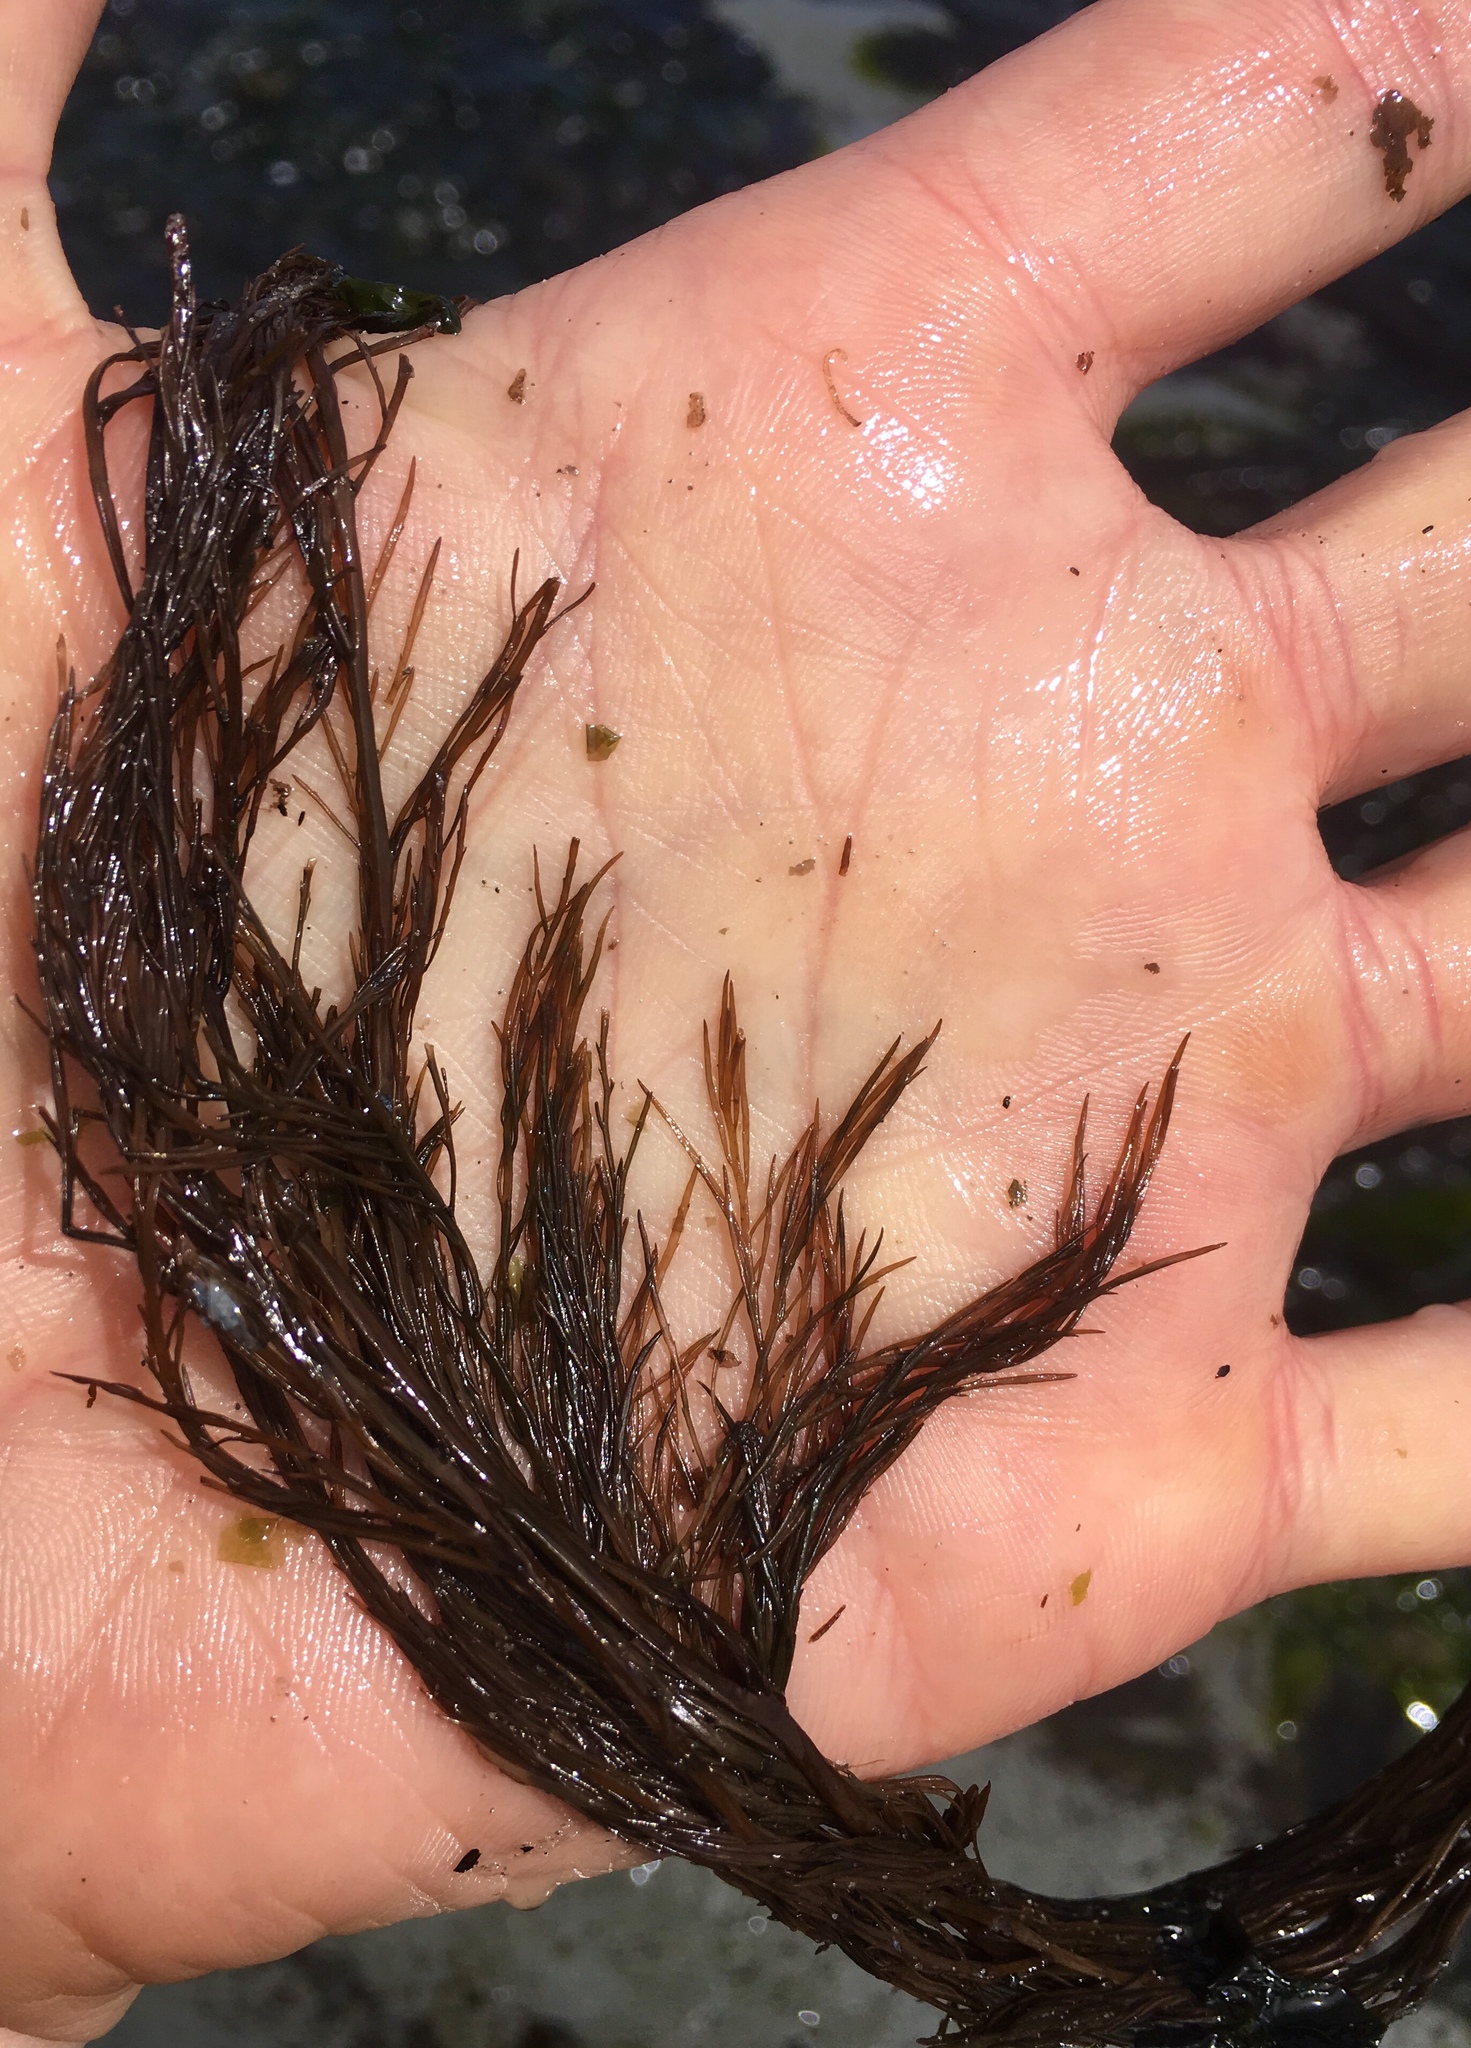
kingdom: Chromista
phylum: Ochrophyta
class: Phaeophyceae
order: Desmarestiales
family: Desmarestiaceae
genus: Desmarestia
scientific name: Desmarestia aculeata
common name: Witch's hair
